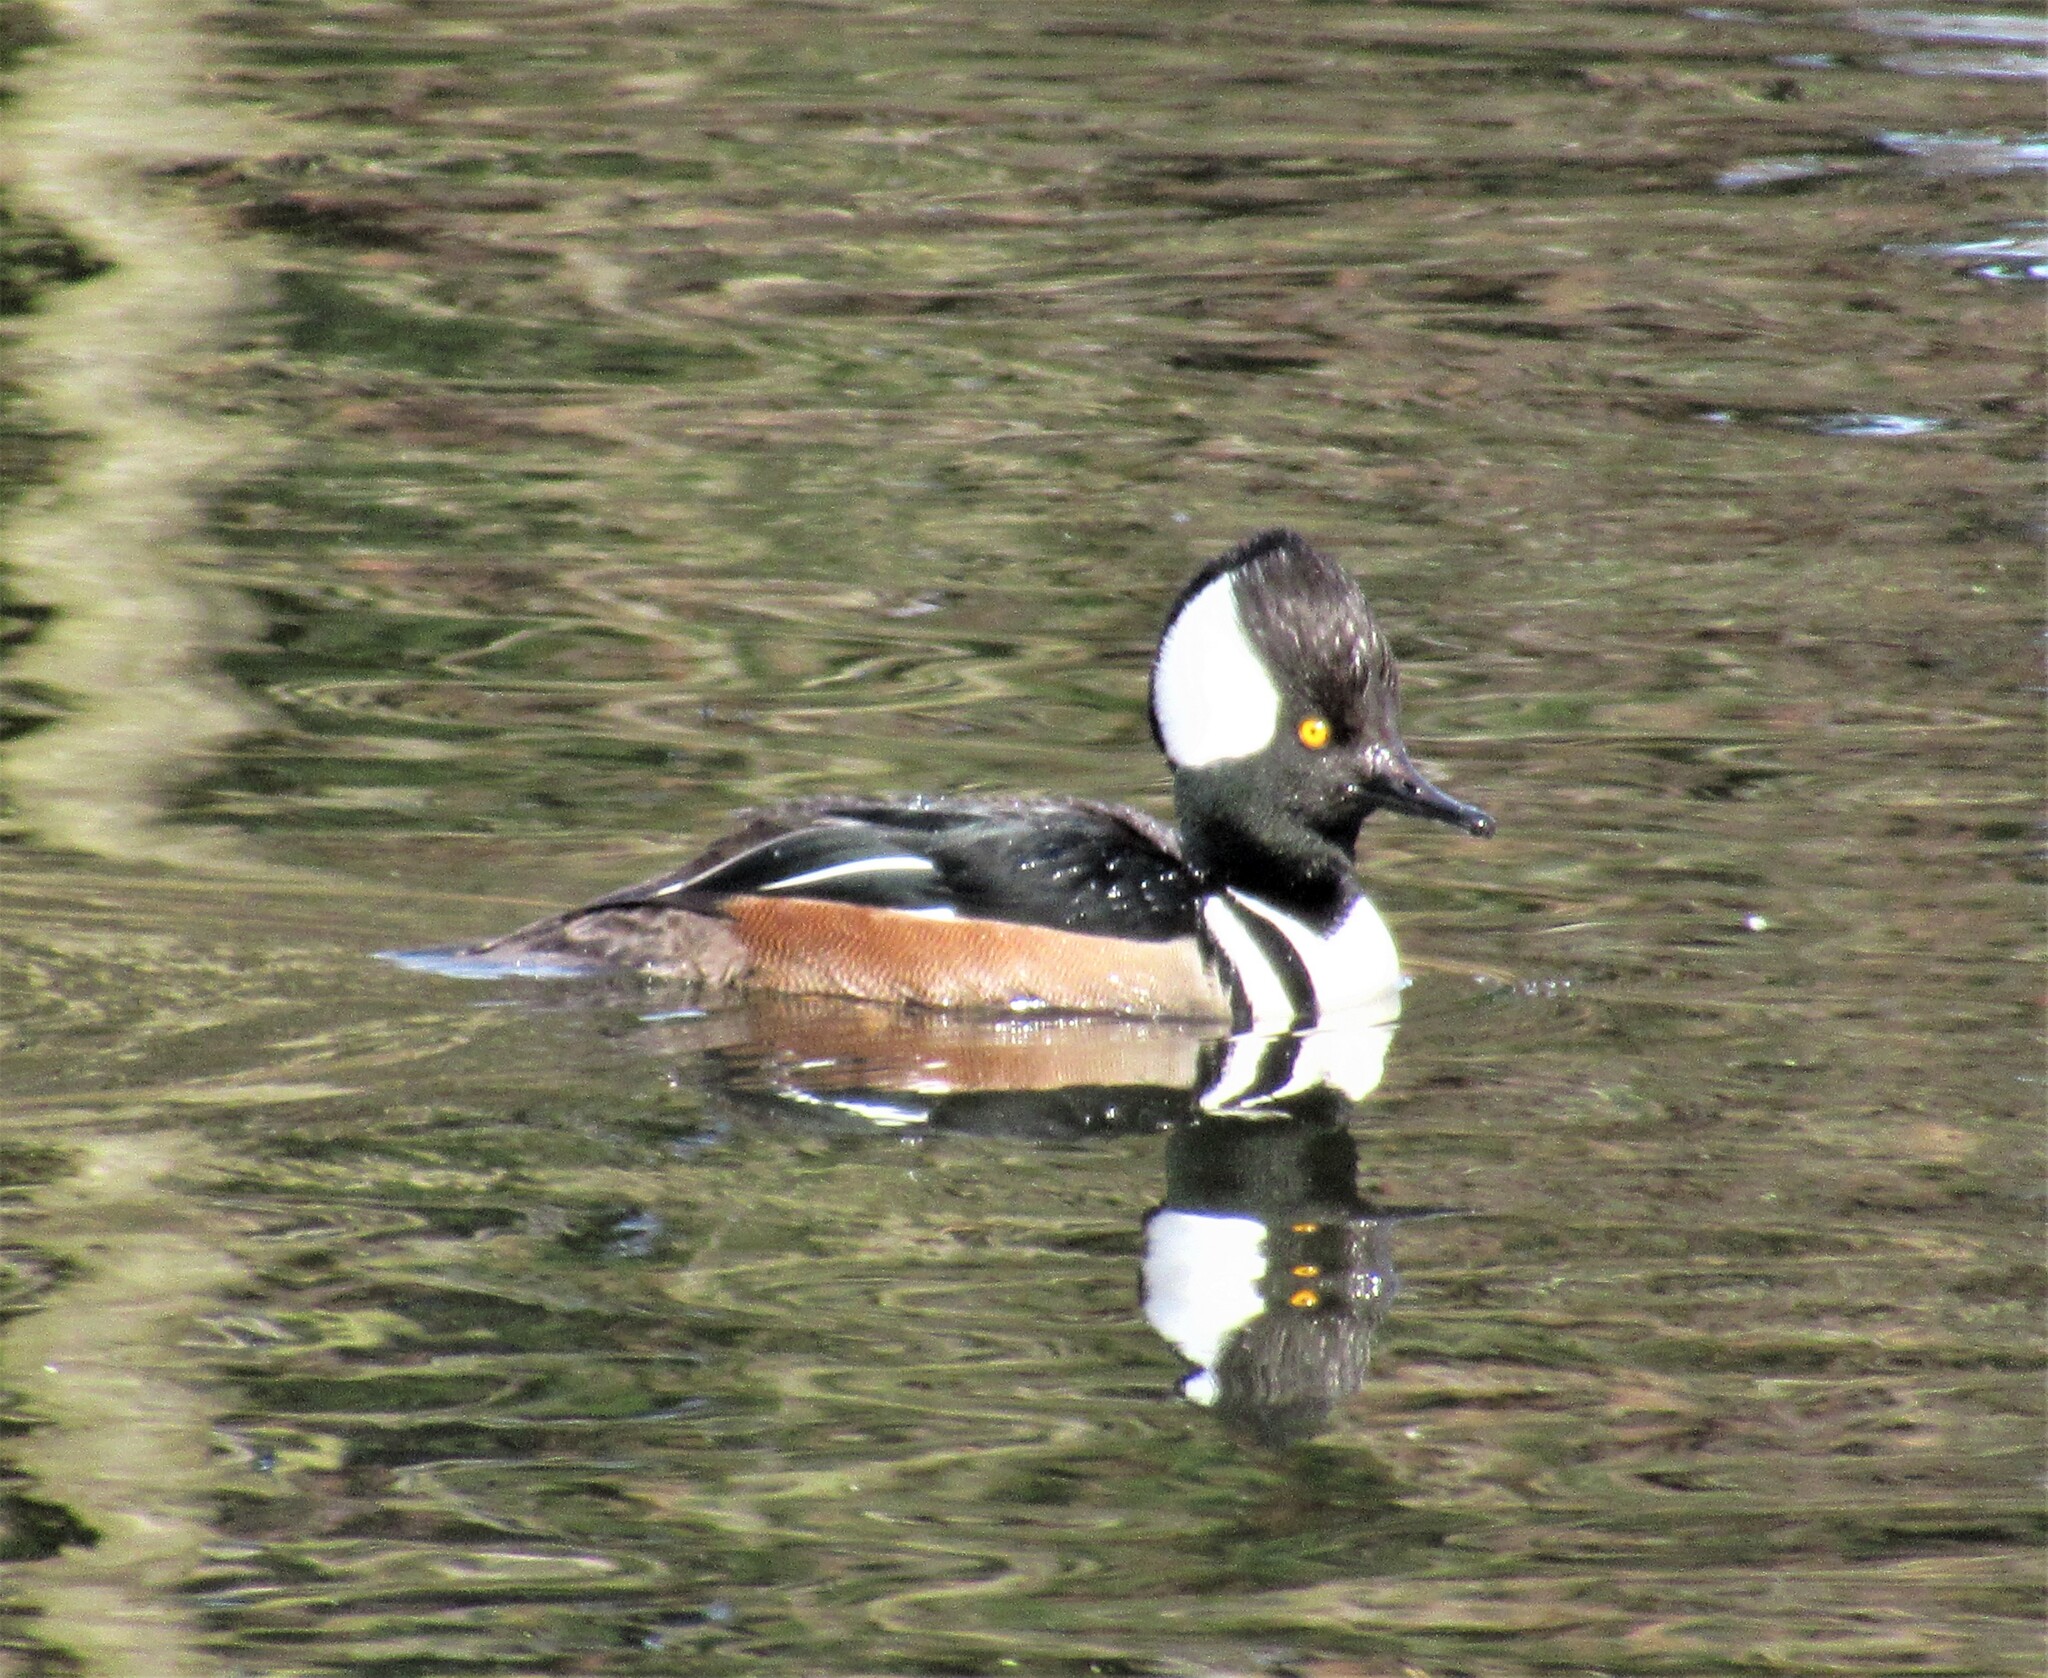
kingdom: Animalia
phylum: Chordata
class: Aves
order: Anseriformes
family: Anatidae
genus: Lophodytes
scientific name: Lophodytes cucullatus
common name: Hooded merganser
